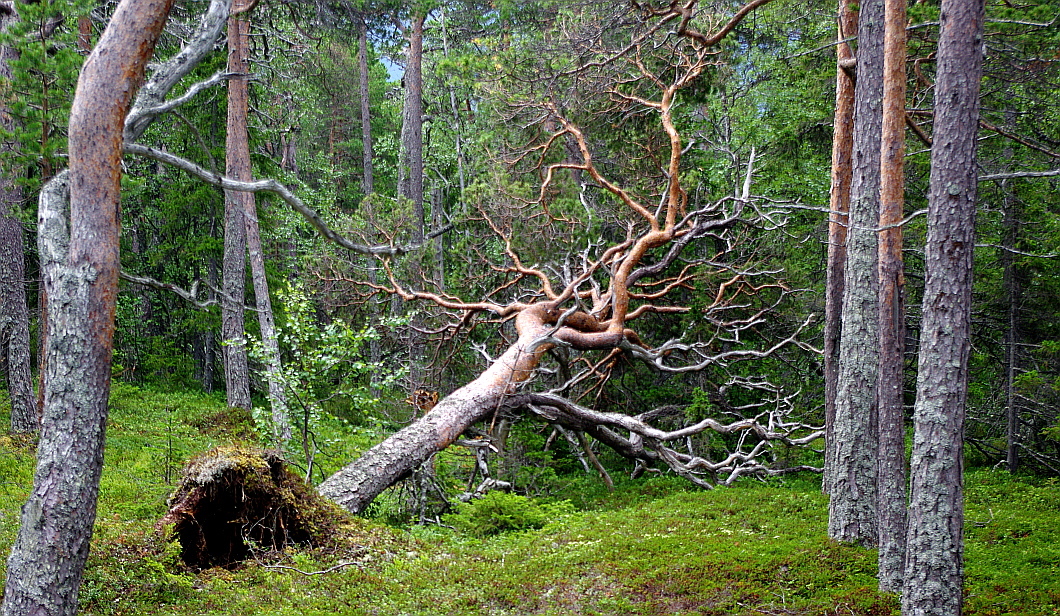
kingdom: Plantae
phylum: Tracheophyta
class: Pinopsida
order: Pinales
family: Pinaceae
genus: Pinus
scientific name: Pinus sylvestris
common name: Scots pine
